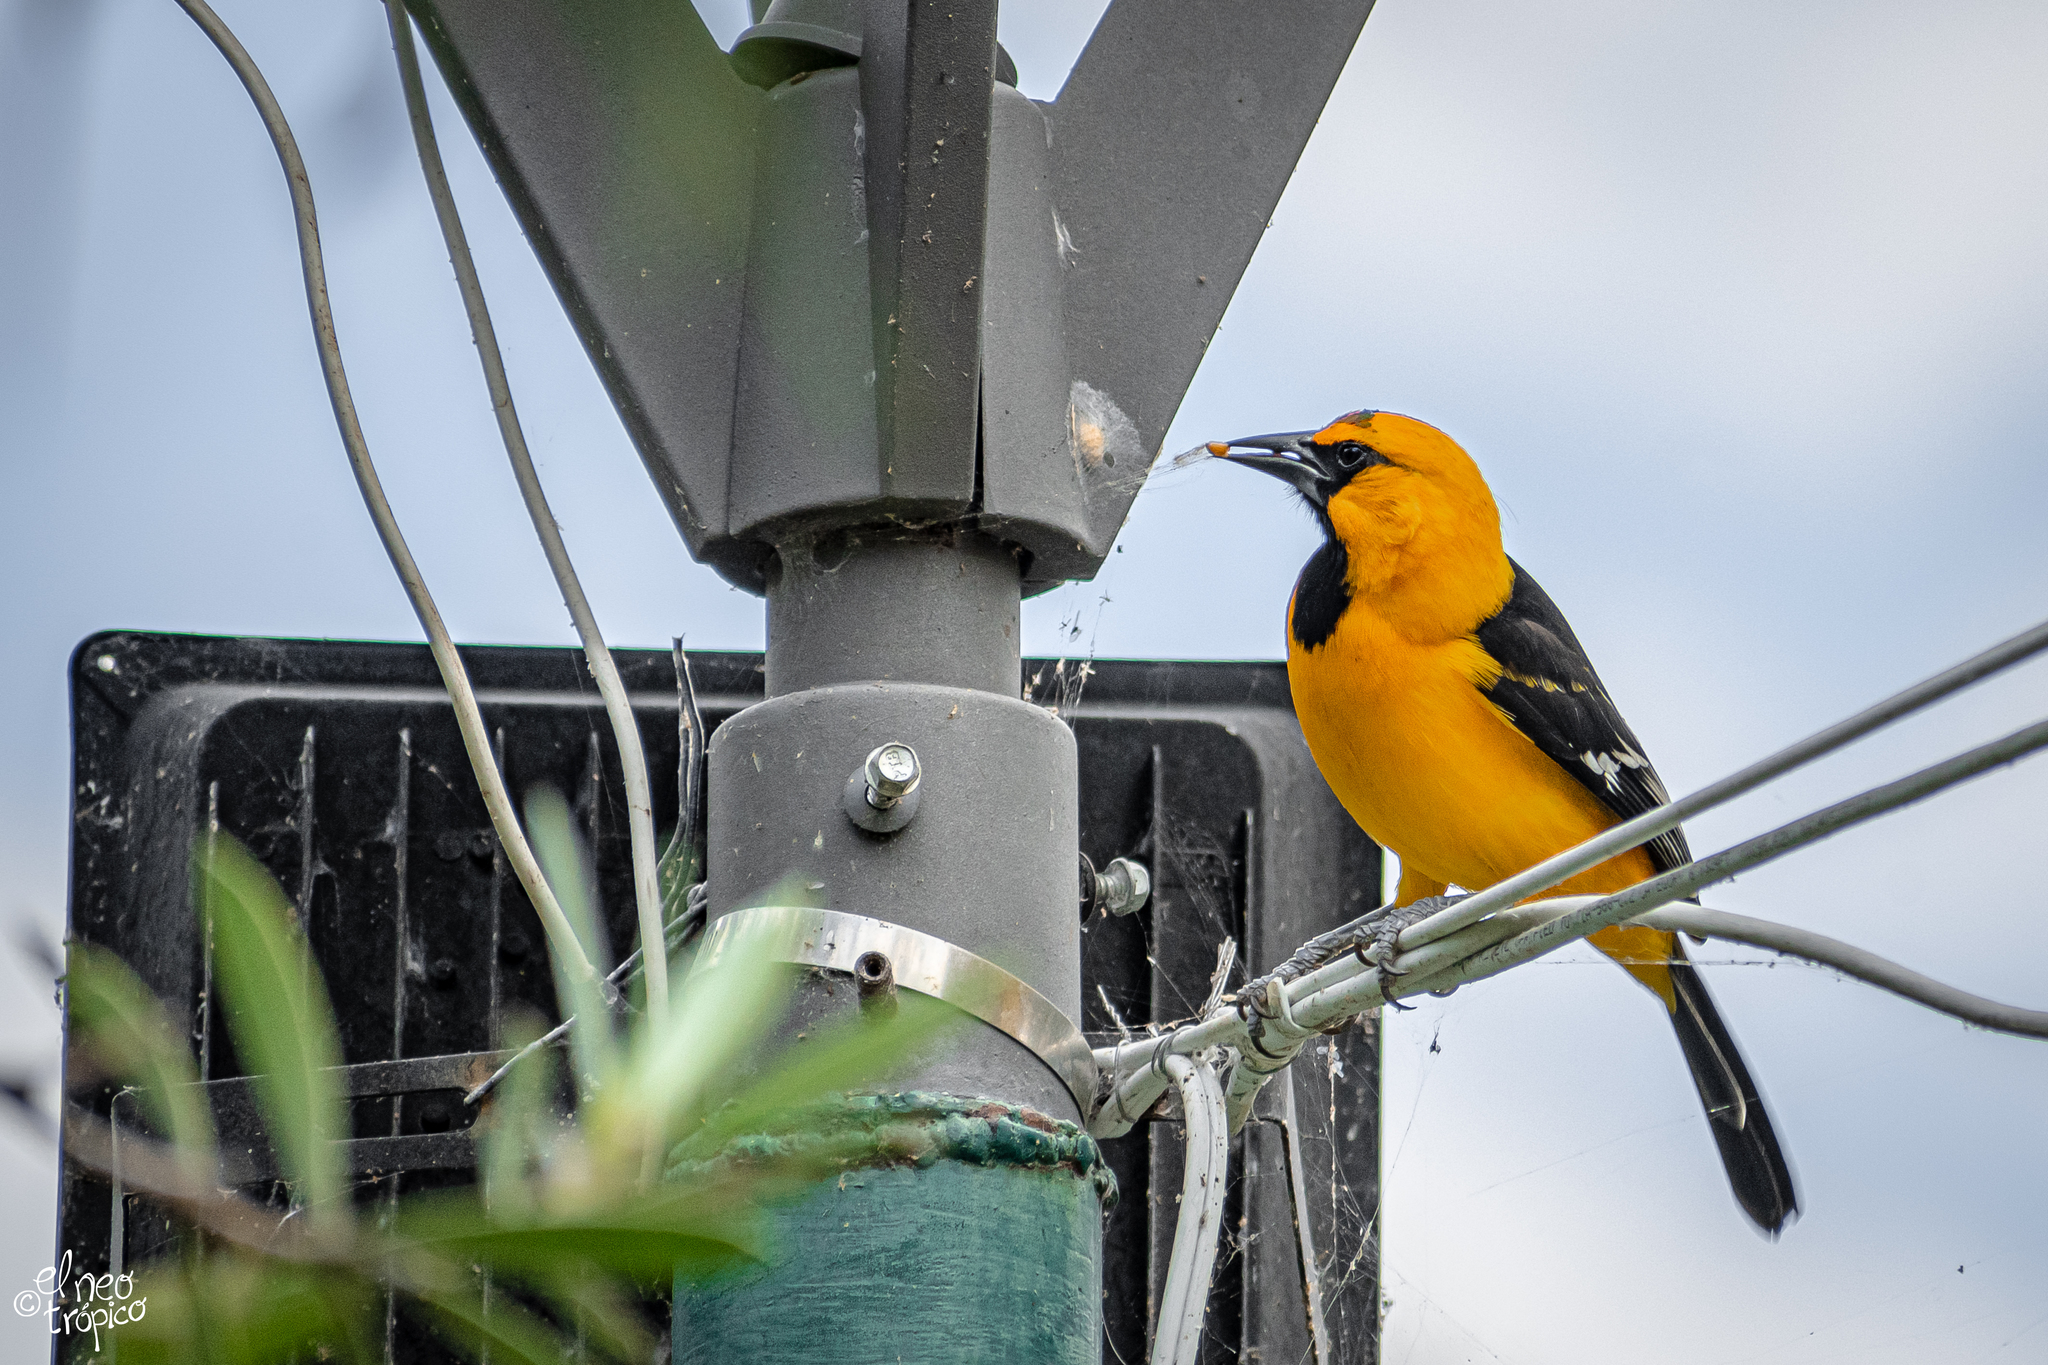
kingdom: Animalia
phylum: Chordata
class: Aves
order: Passeriformes
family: Icteridae
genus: Icterus
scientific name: Icterus gularis
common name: Altamira oriole
